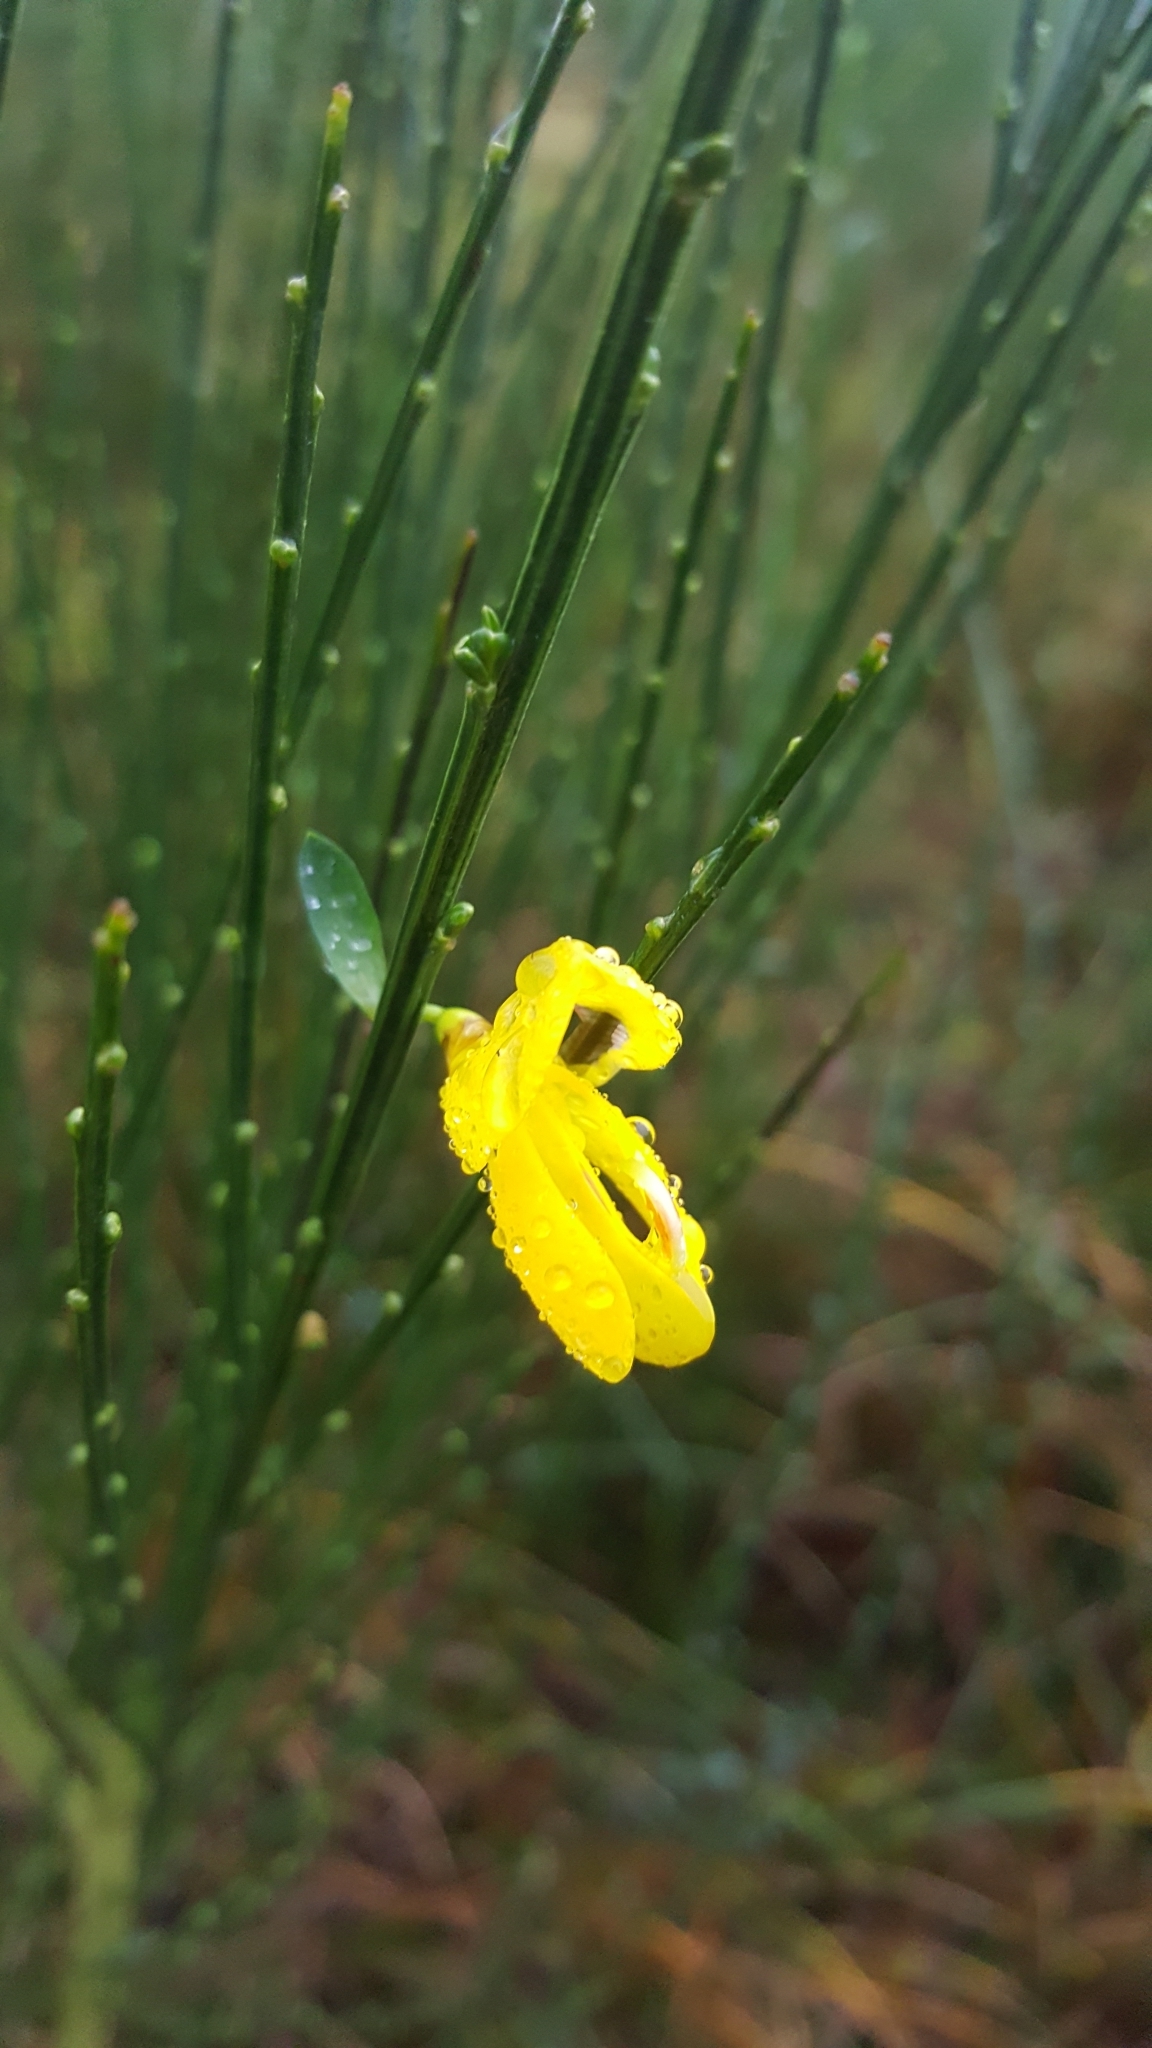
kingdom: Plantae
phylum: Tracheophyta
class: Magnoliopsida
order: Fabales
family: Fabaceae
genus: Cytisus
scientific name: Cytisus scoparius
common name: Scotch broom
